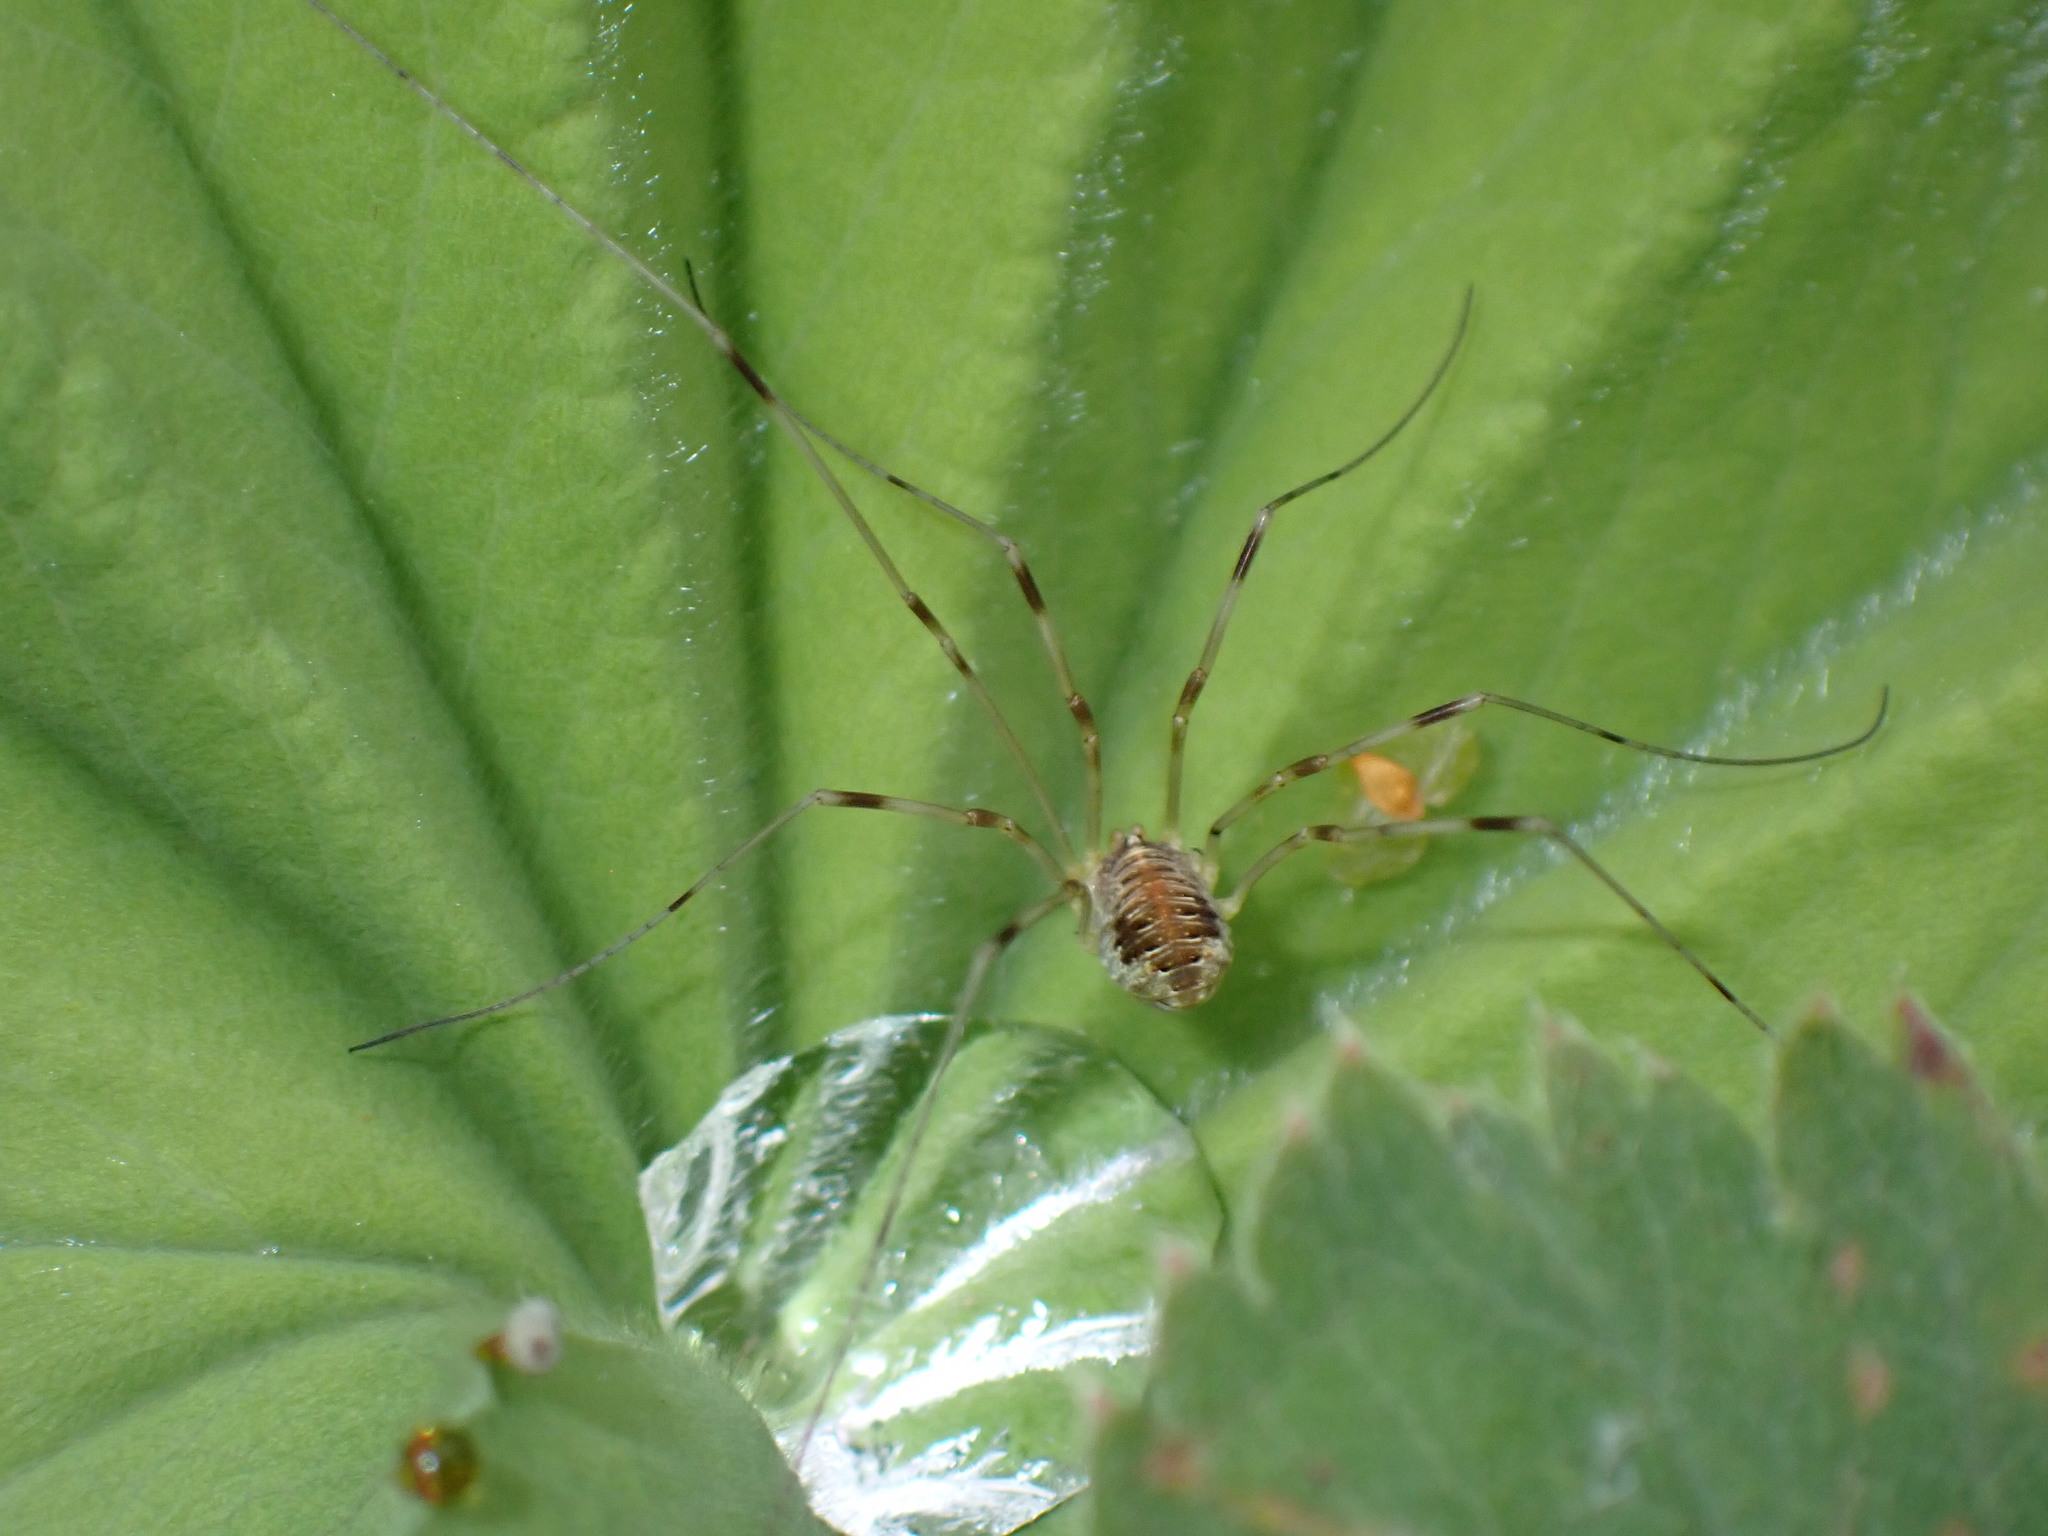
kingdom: Animalia
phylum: Arthropoda
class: Arachnida
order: Opiliones
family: Phalangiidae
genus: Opilio
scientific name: Opilio canestrinii
